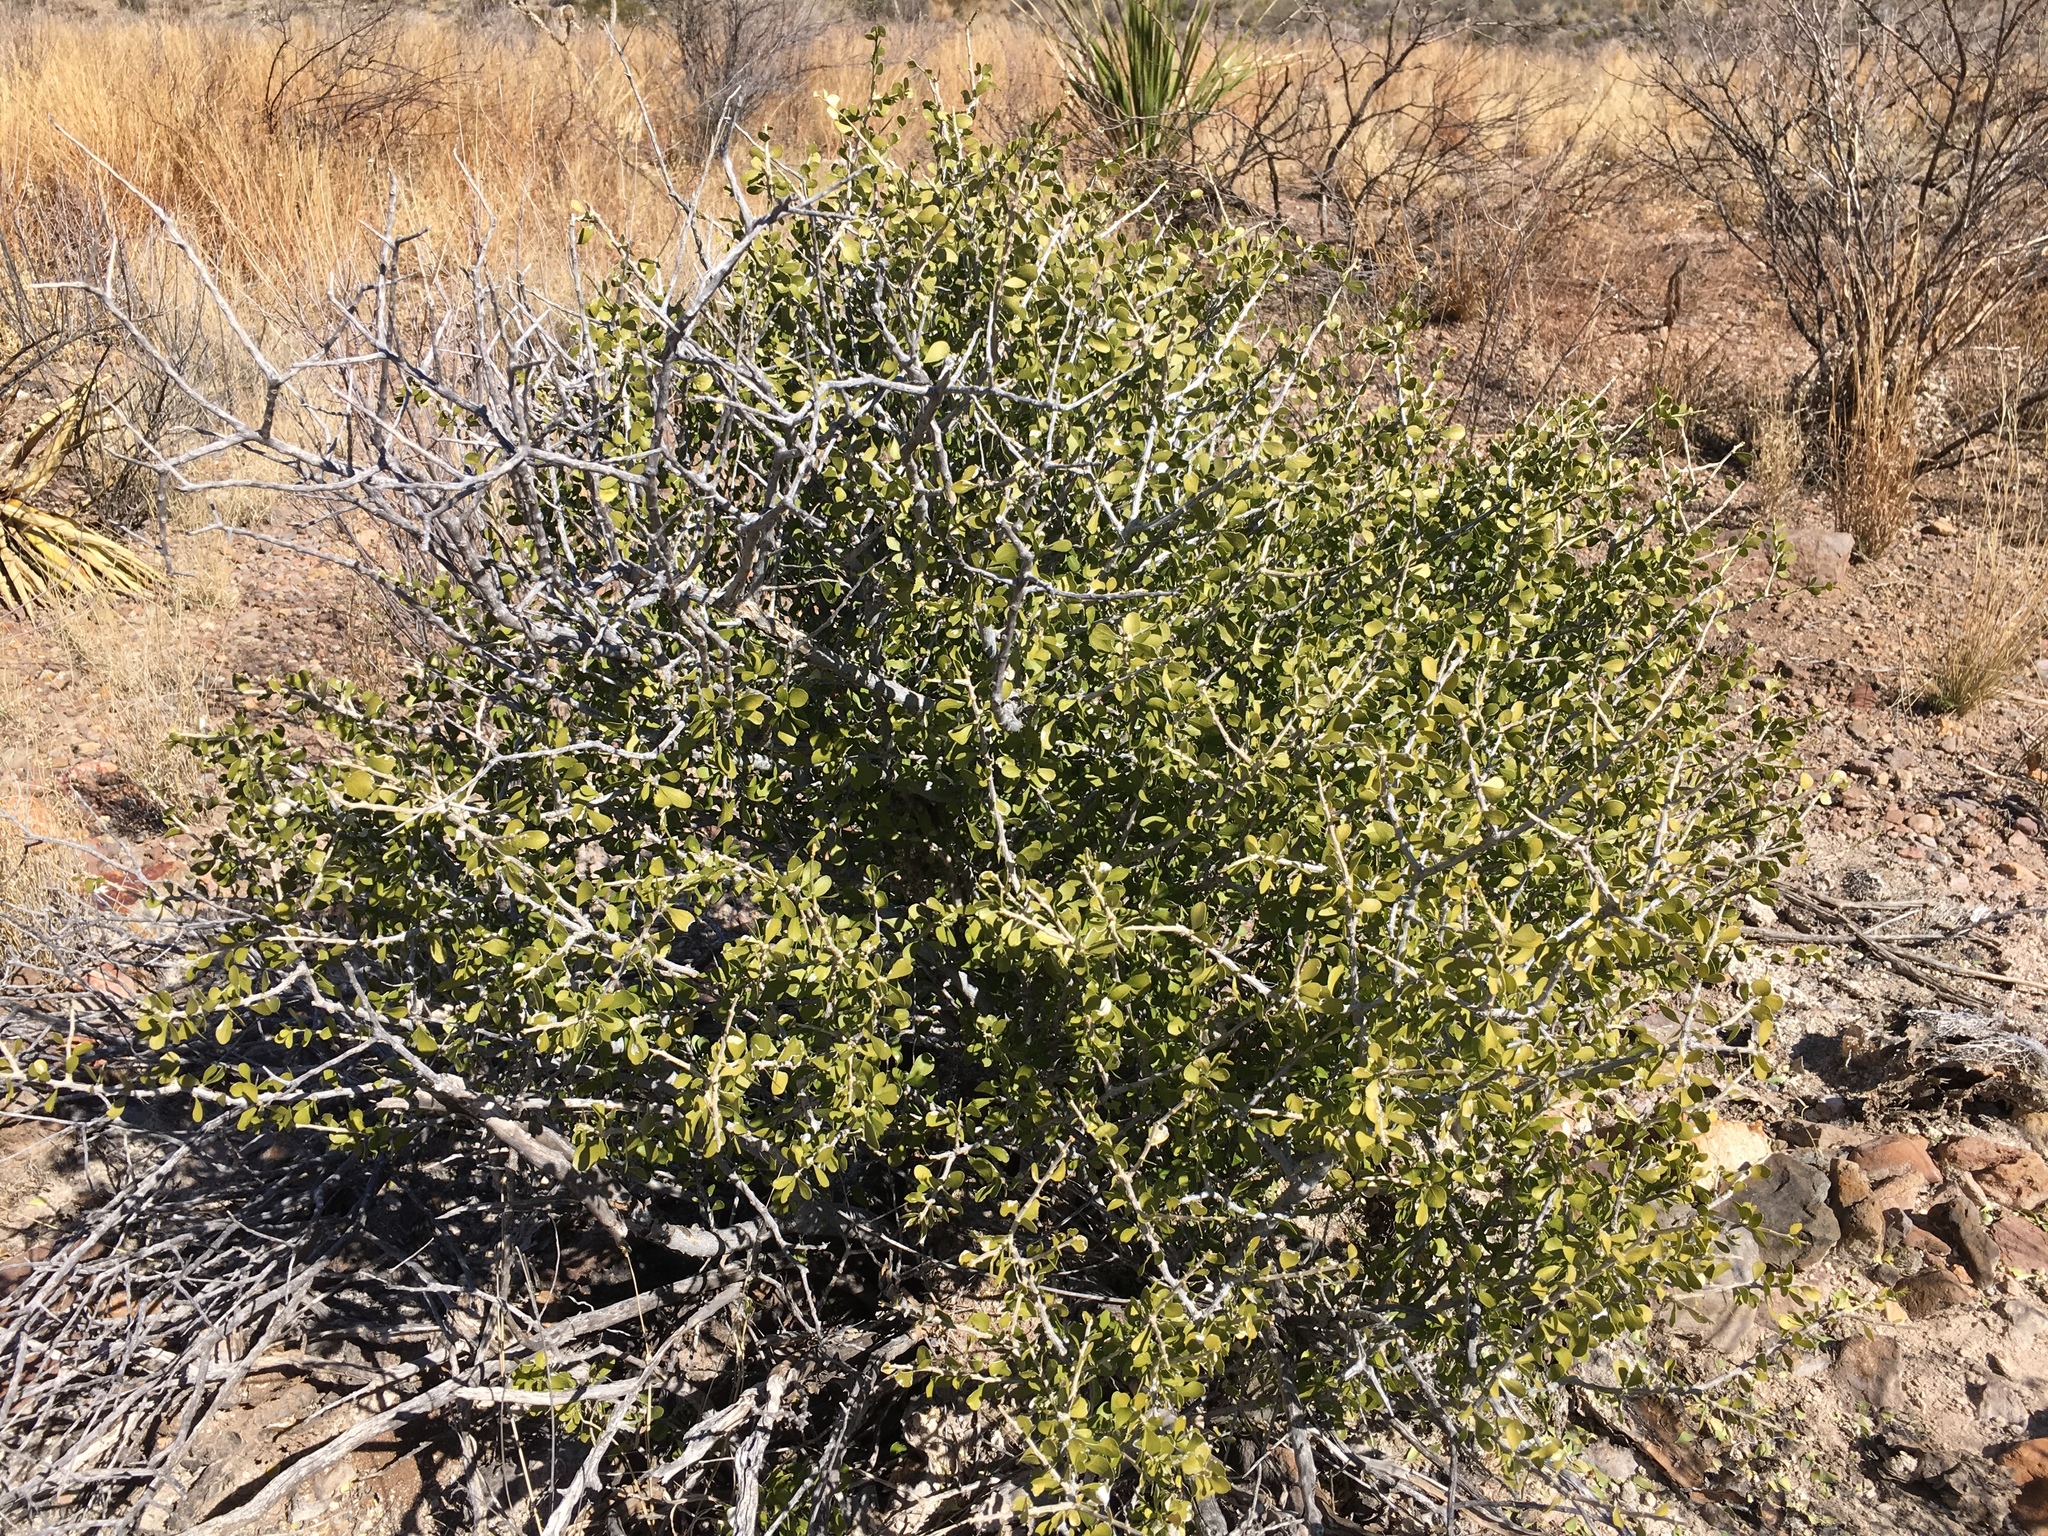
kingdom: Plantae
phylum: Tracheophyta
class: Magnoliopsida
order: Celastrales
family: Celastraceae
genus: Schaefferia
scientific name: Schaefferia cuneifolia
